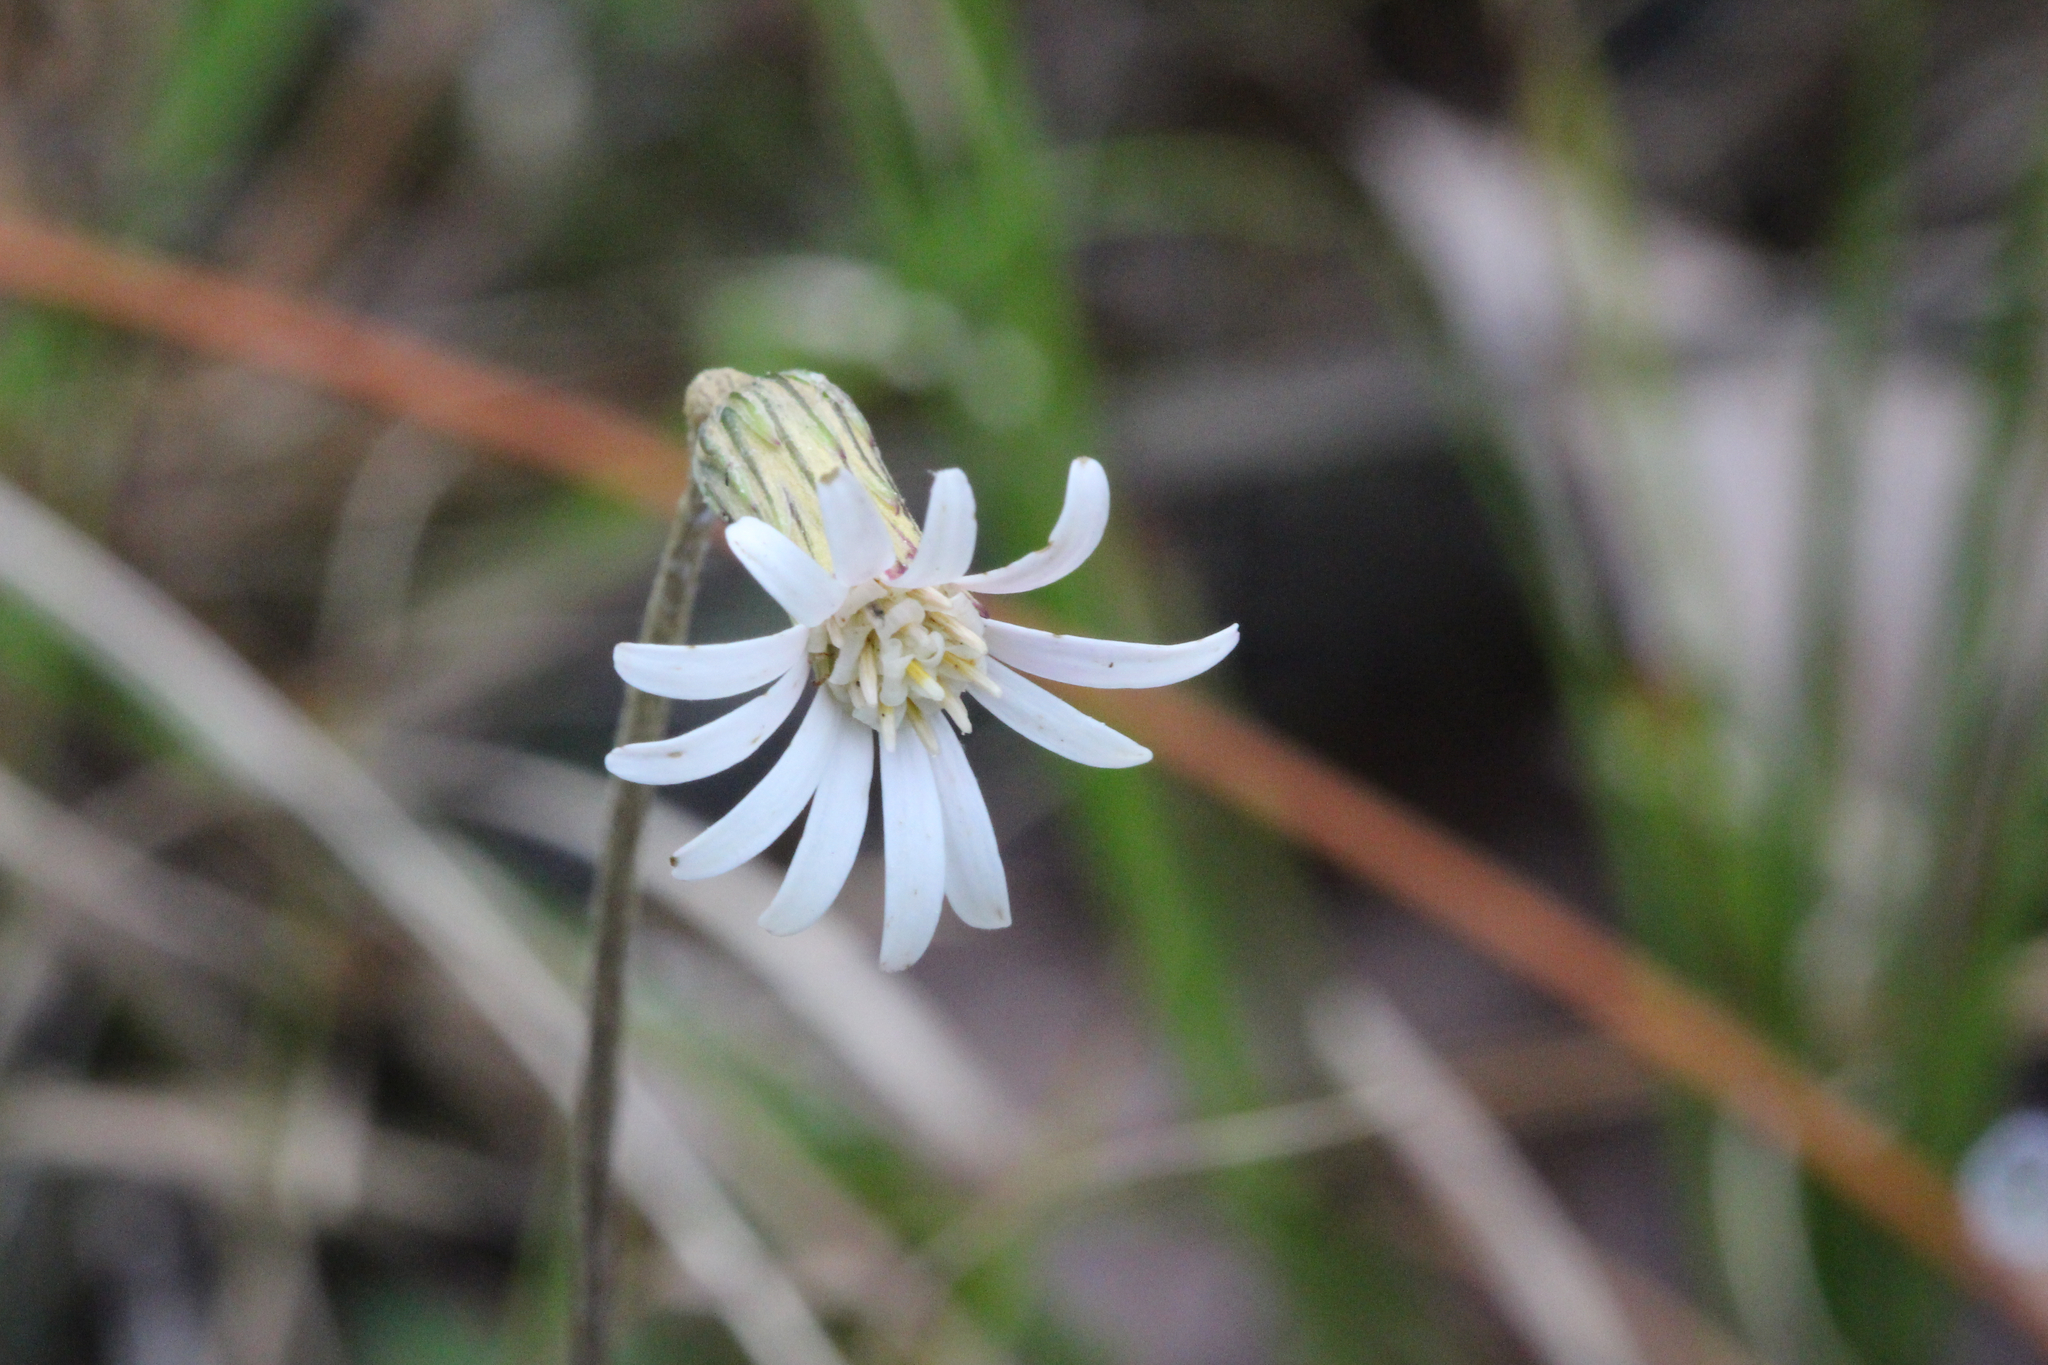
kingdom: Plantae
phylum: Tracheophyta
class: Magnoliopsida
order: Asterales
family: Asteraceae
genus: Chaptalia
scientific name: Chaptalia tomentosa
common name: Woolly sunbonnet
